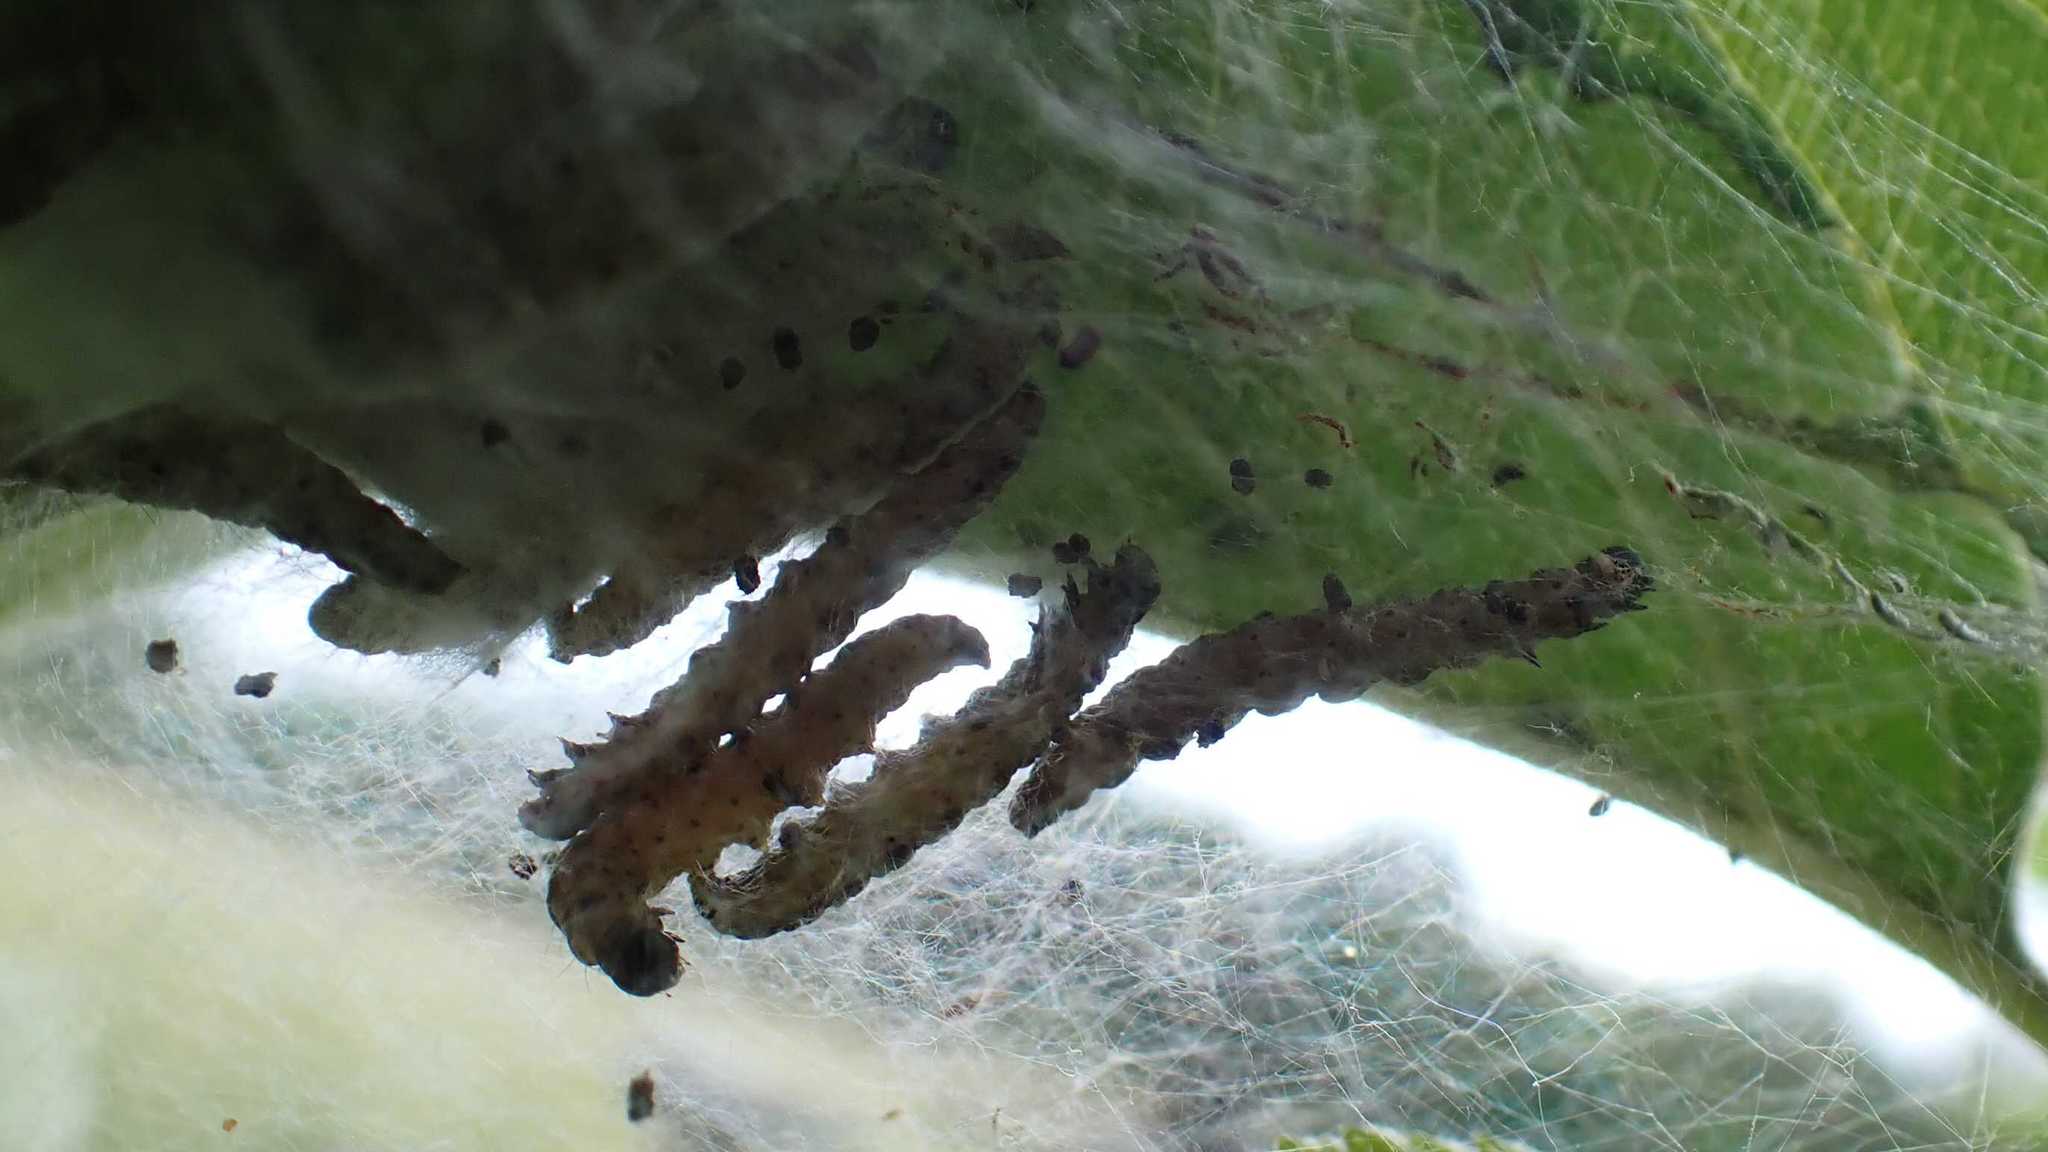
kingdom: Animalia
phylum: Arthropoda
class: Insecta
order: Lepidoptera
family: Yponomeutidae
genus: Yponomeuta
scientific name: Yponomeuta padella
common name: Orchard ermine
